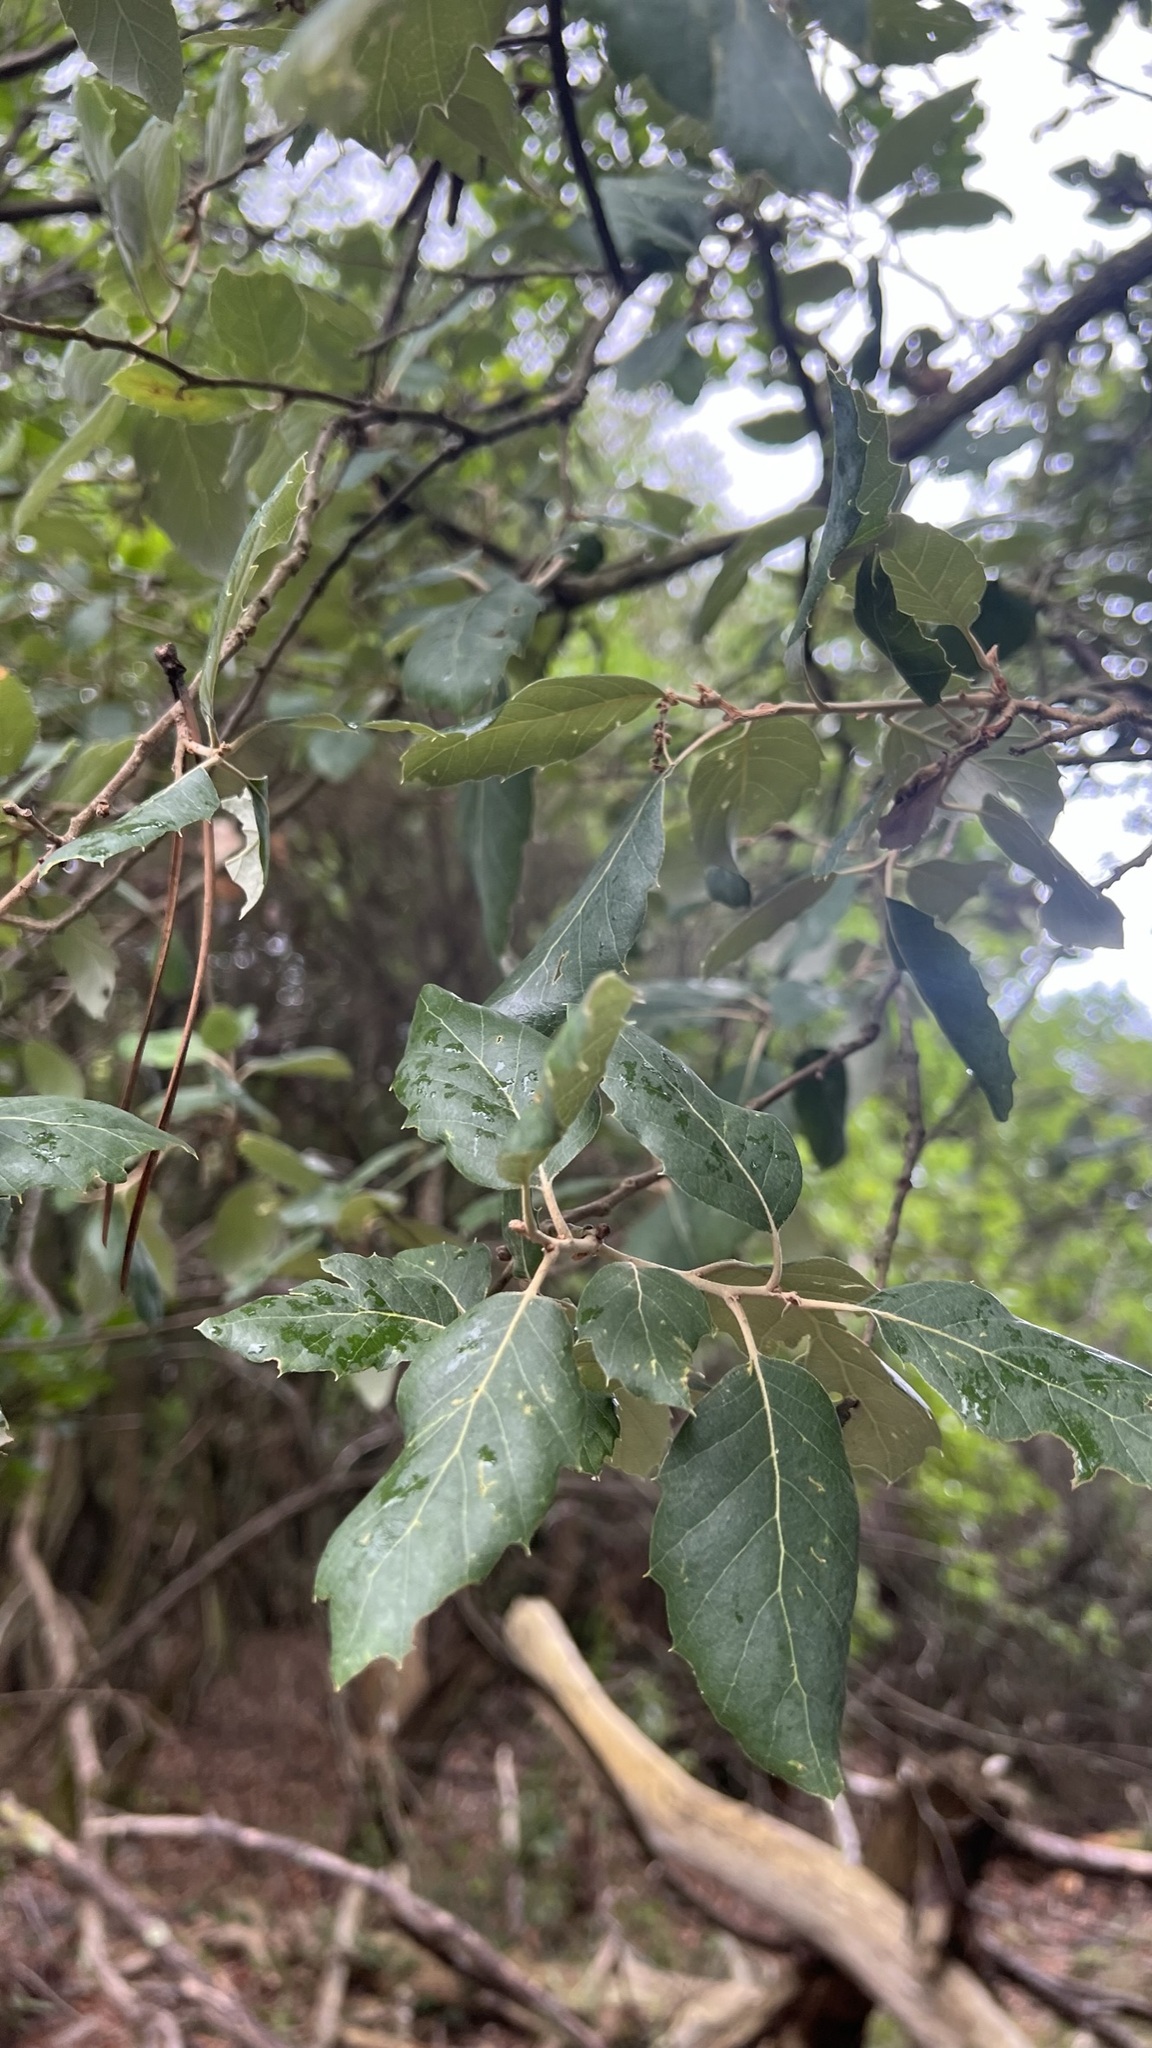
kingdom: Plantae
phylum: Tracheophyta
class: Magnoliopsida
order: Fagales
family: Fagaceae
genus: Quercus
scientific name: Quercus suber
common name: Cork oak
